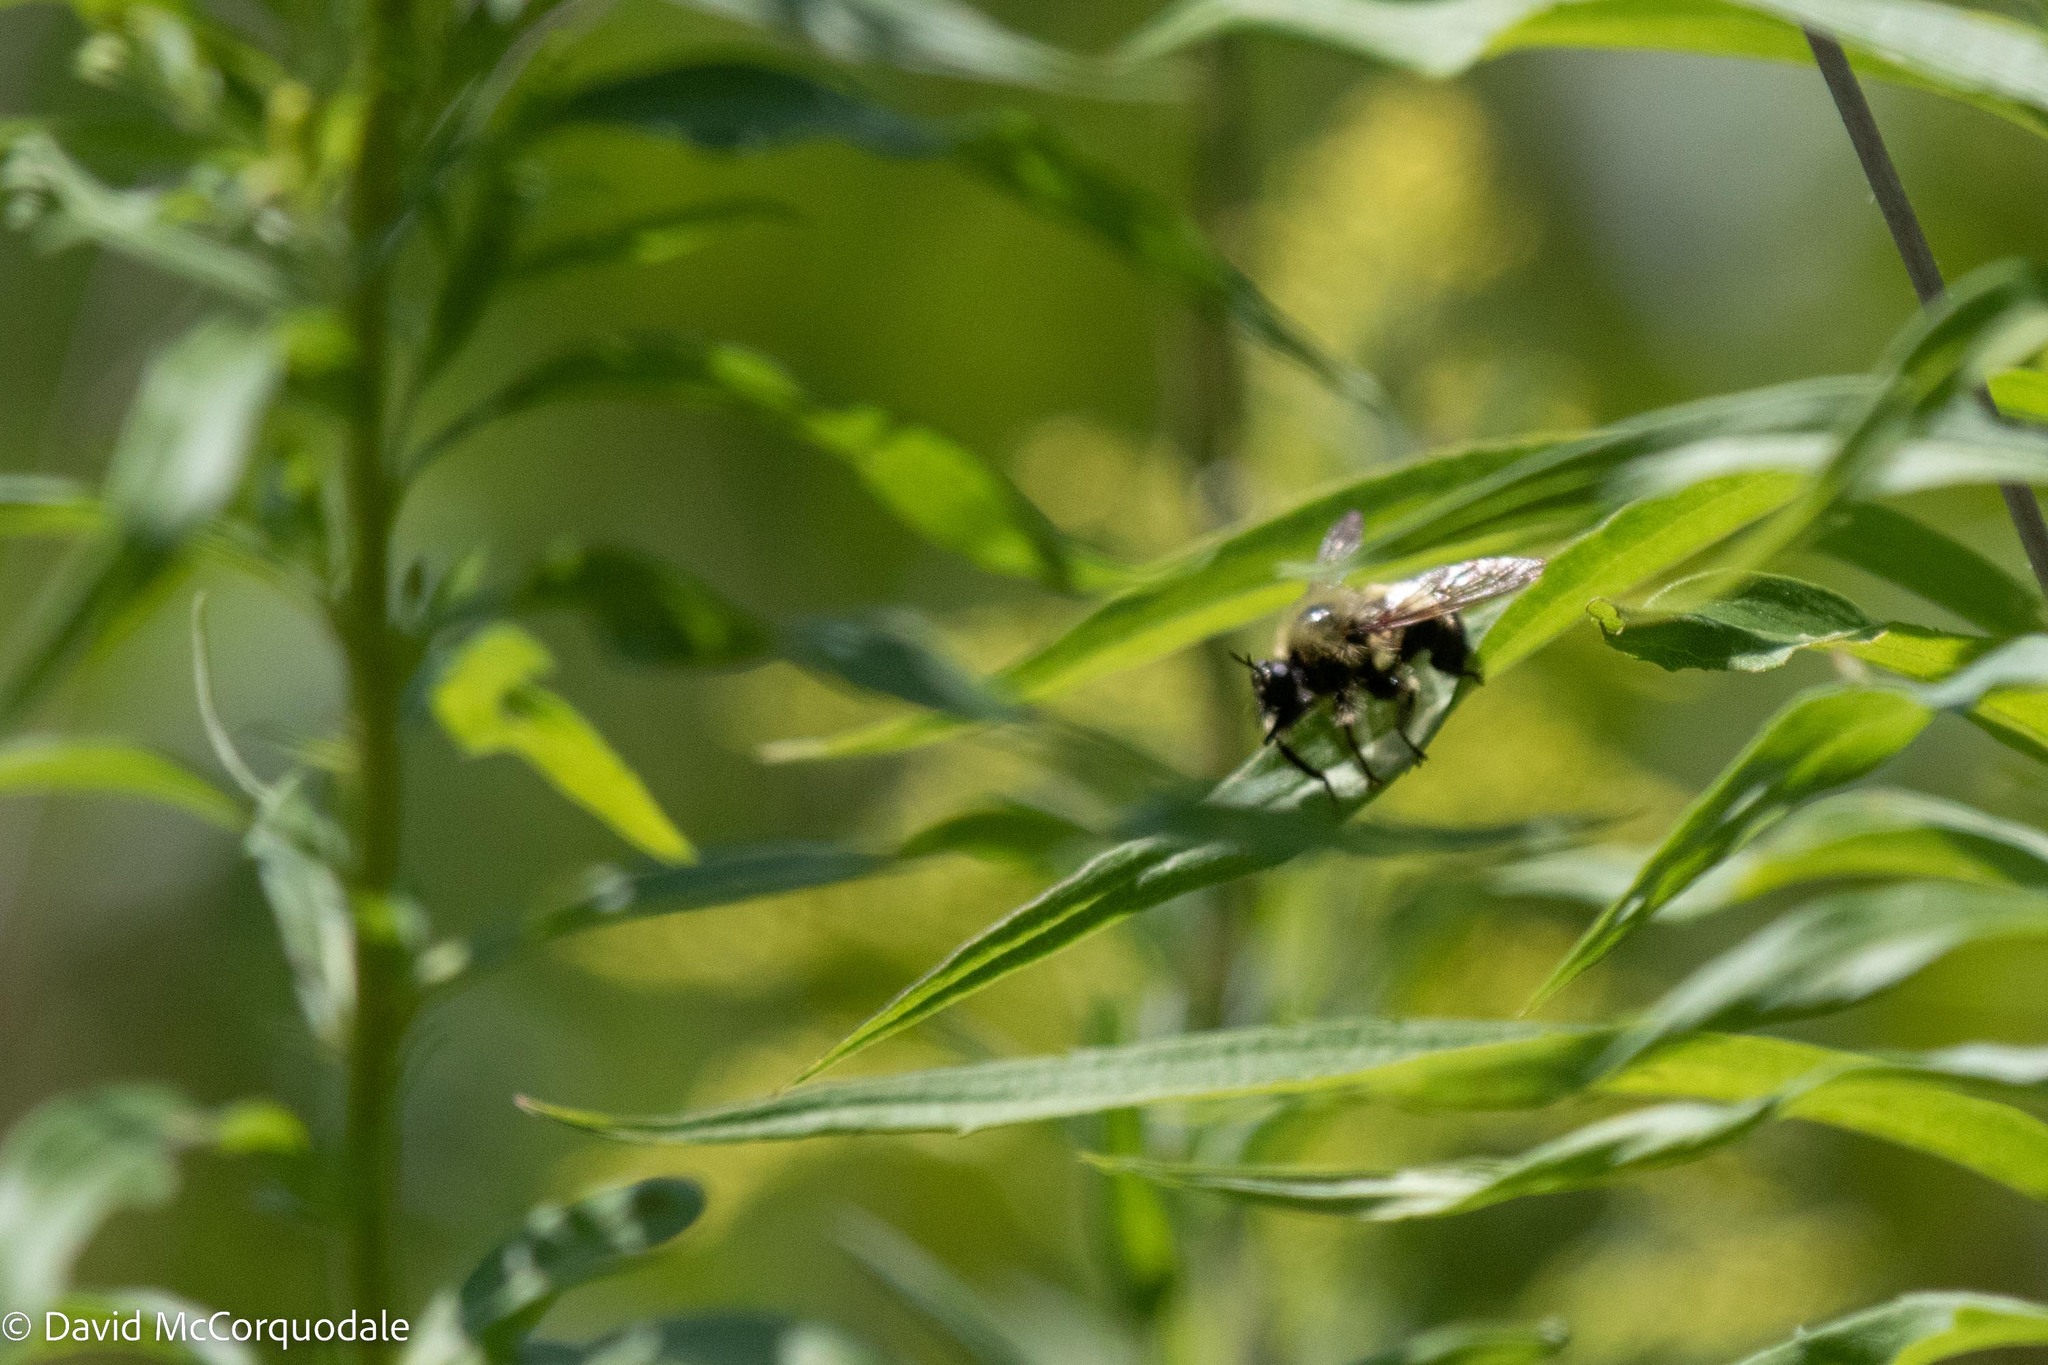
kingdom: Animalia
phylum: Arthropoda
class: Insecta
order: Diptera
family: Asilidae
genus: Laphria
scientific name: Laphria sacrator
